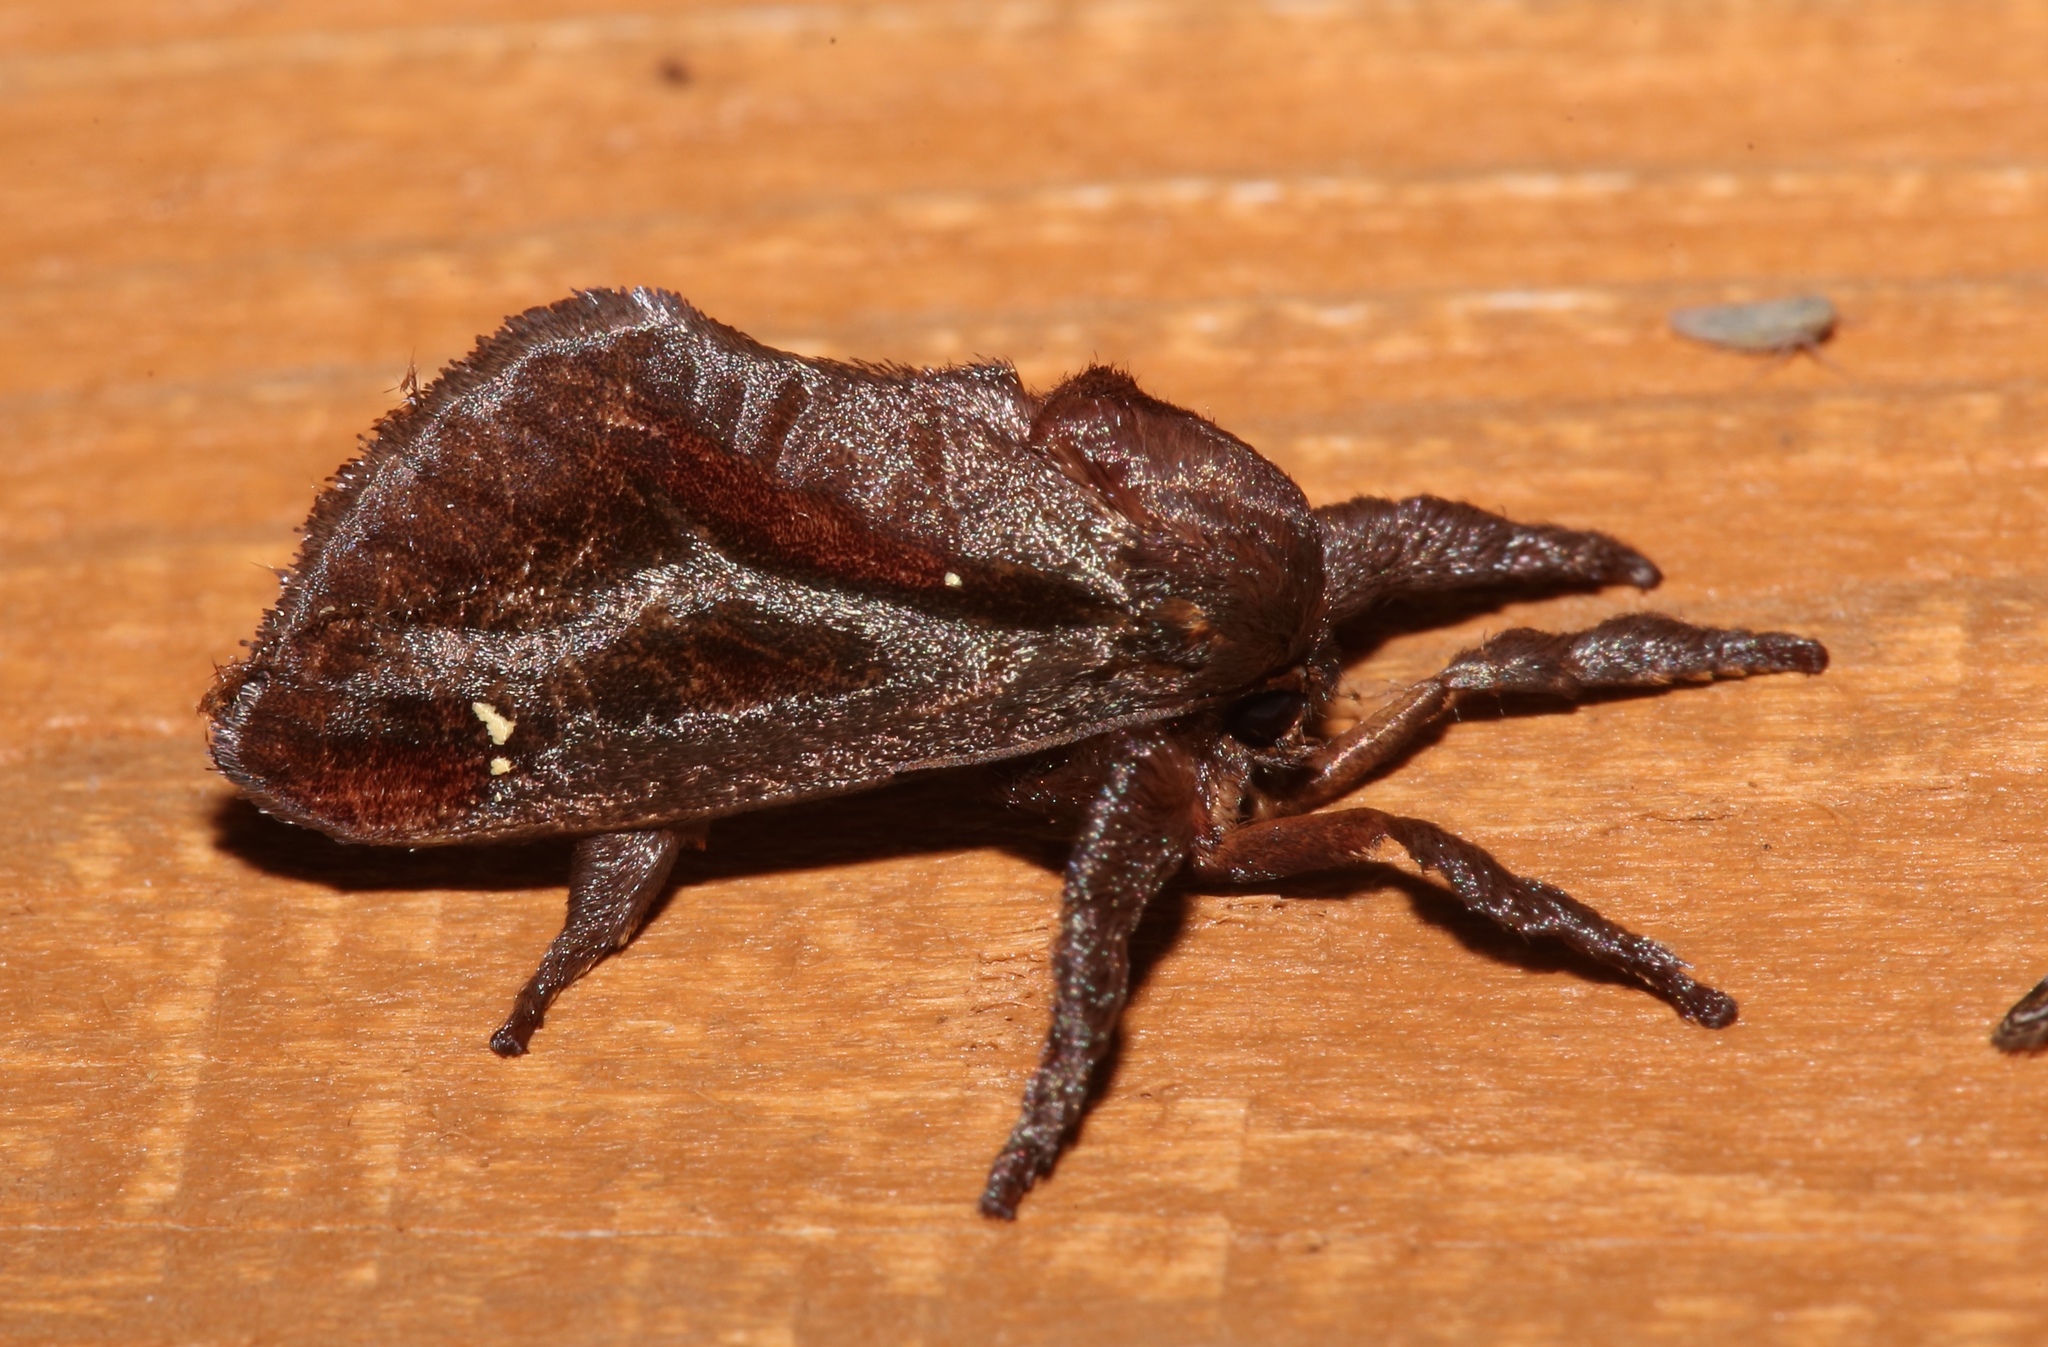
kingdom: Animalia
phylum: Arthropoda
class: Insecta
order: Lepidoptera
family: Limacodidae
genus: Acharia
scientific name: Acharia stimulea
